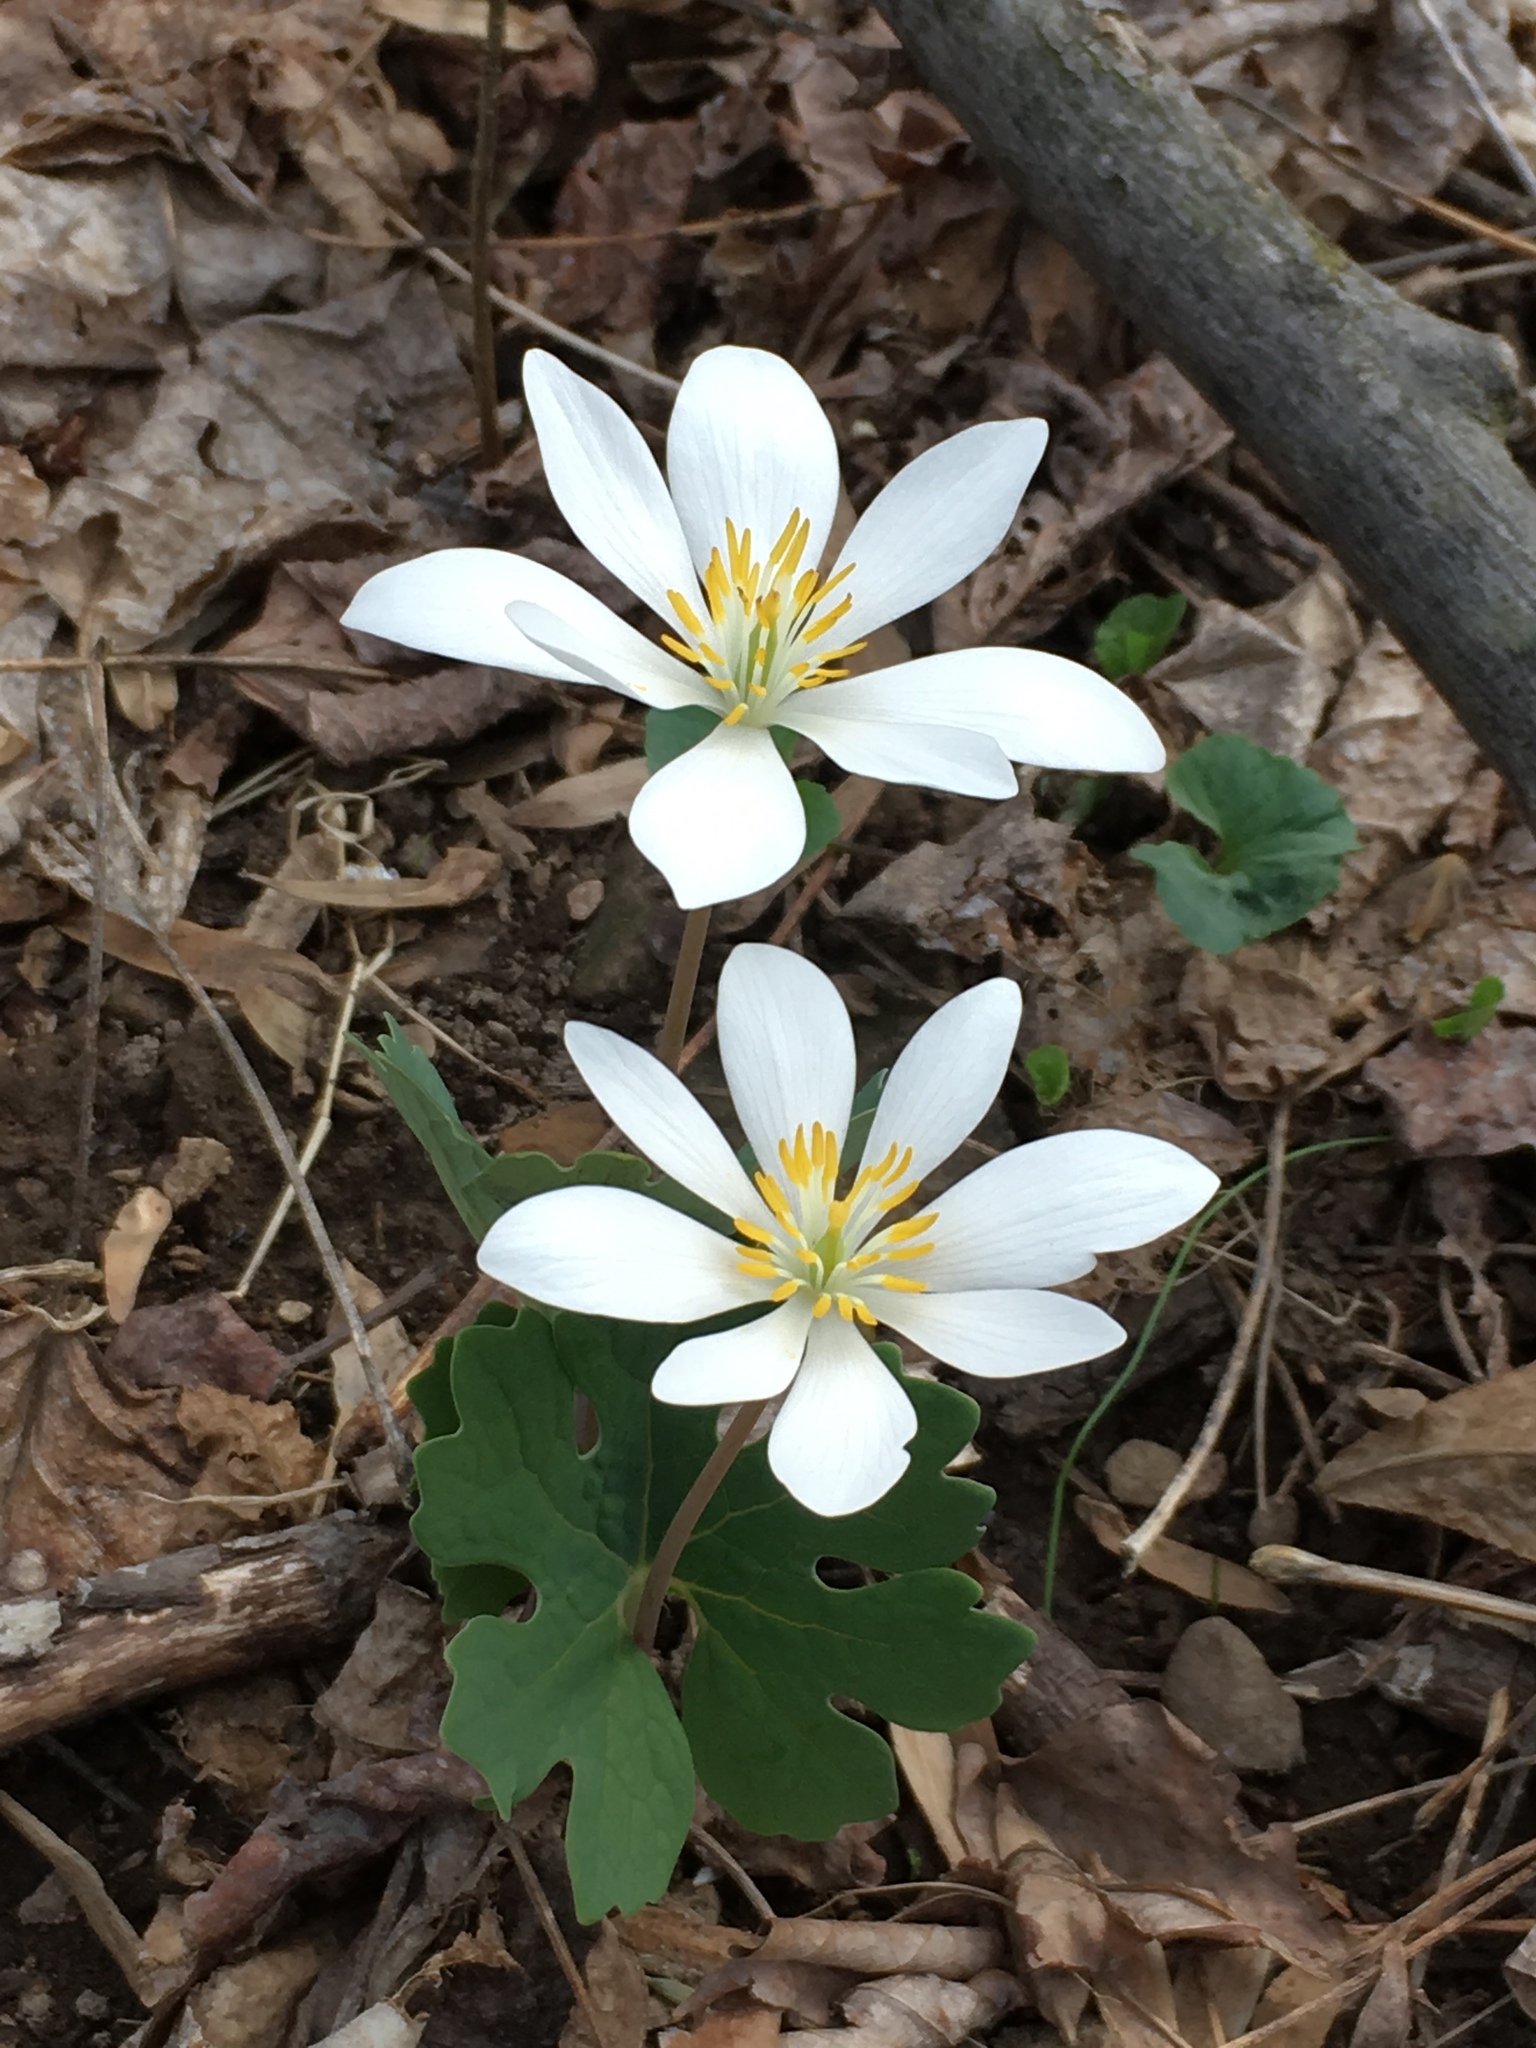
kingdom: Plantae
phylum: Tracheophyta
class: Magnoliopsida
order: Ranunculales
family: Papaveraceae
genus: Sanguinaria
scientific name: Sanguinaria canadensis
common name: Bloodroot
